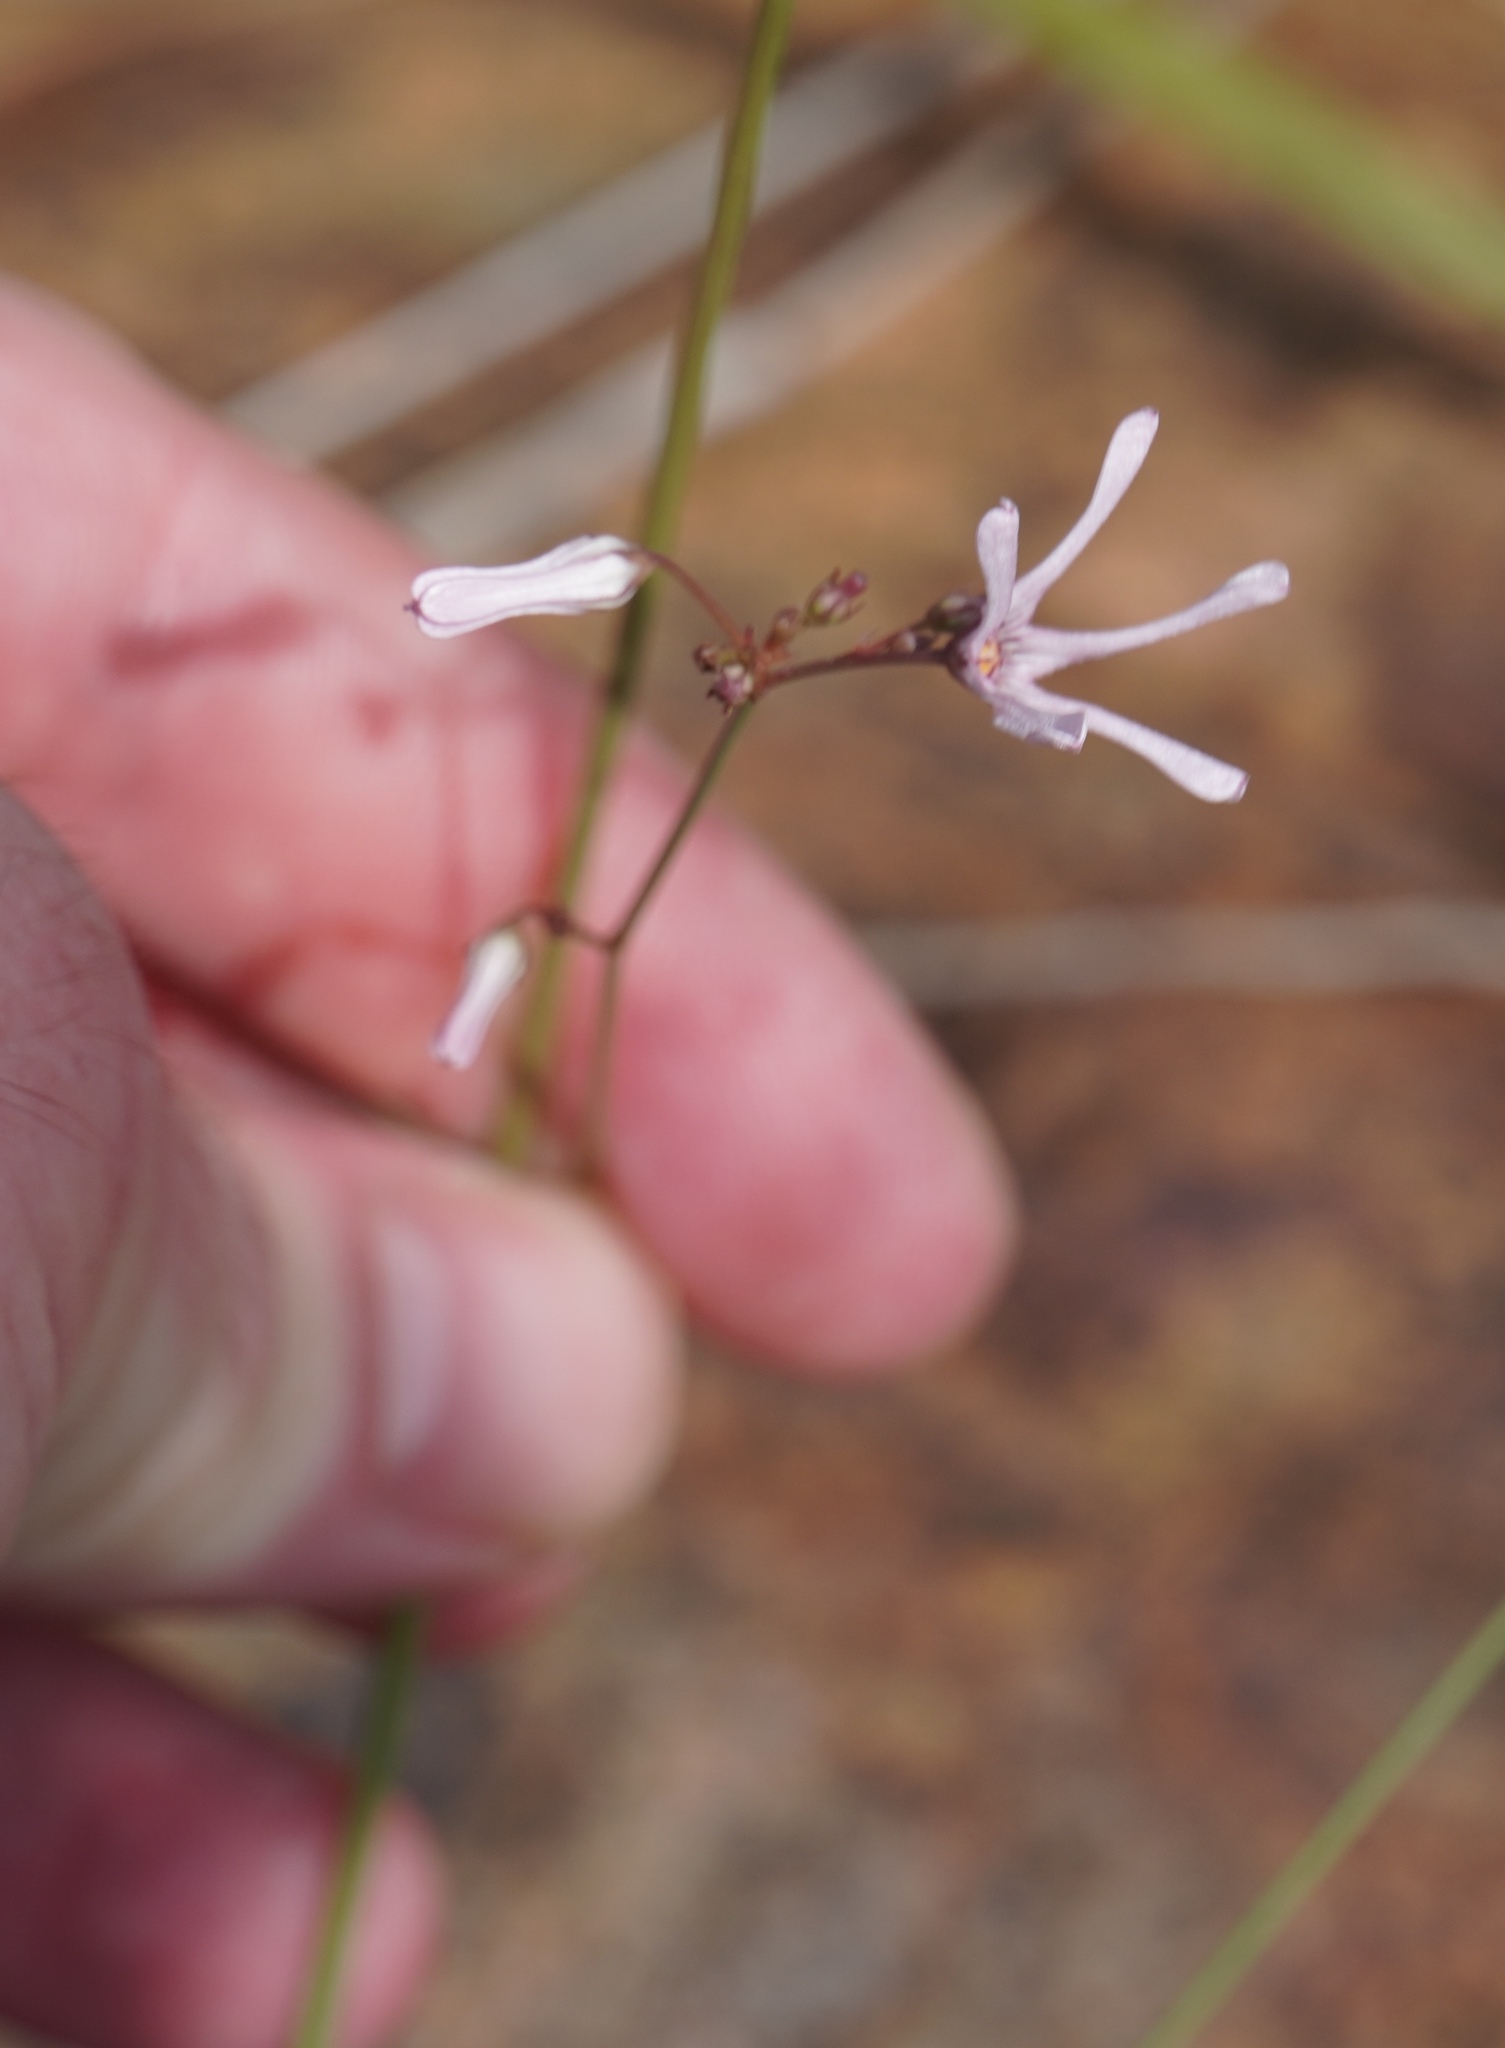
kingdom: Plantae
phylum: Tracheophyta
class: Magnoliopsida
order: Gentianales
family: Apocynaceae
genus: Ceropegia
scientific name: Ceropegia rubella
